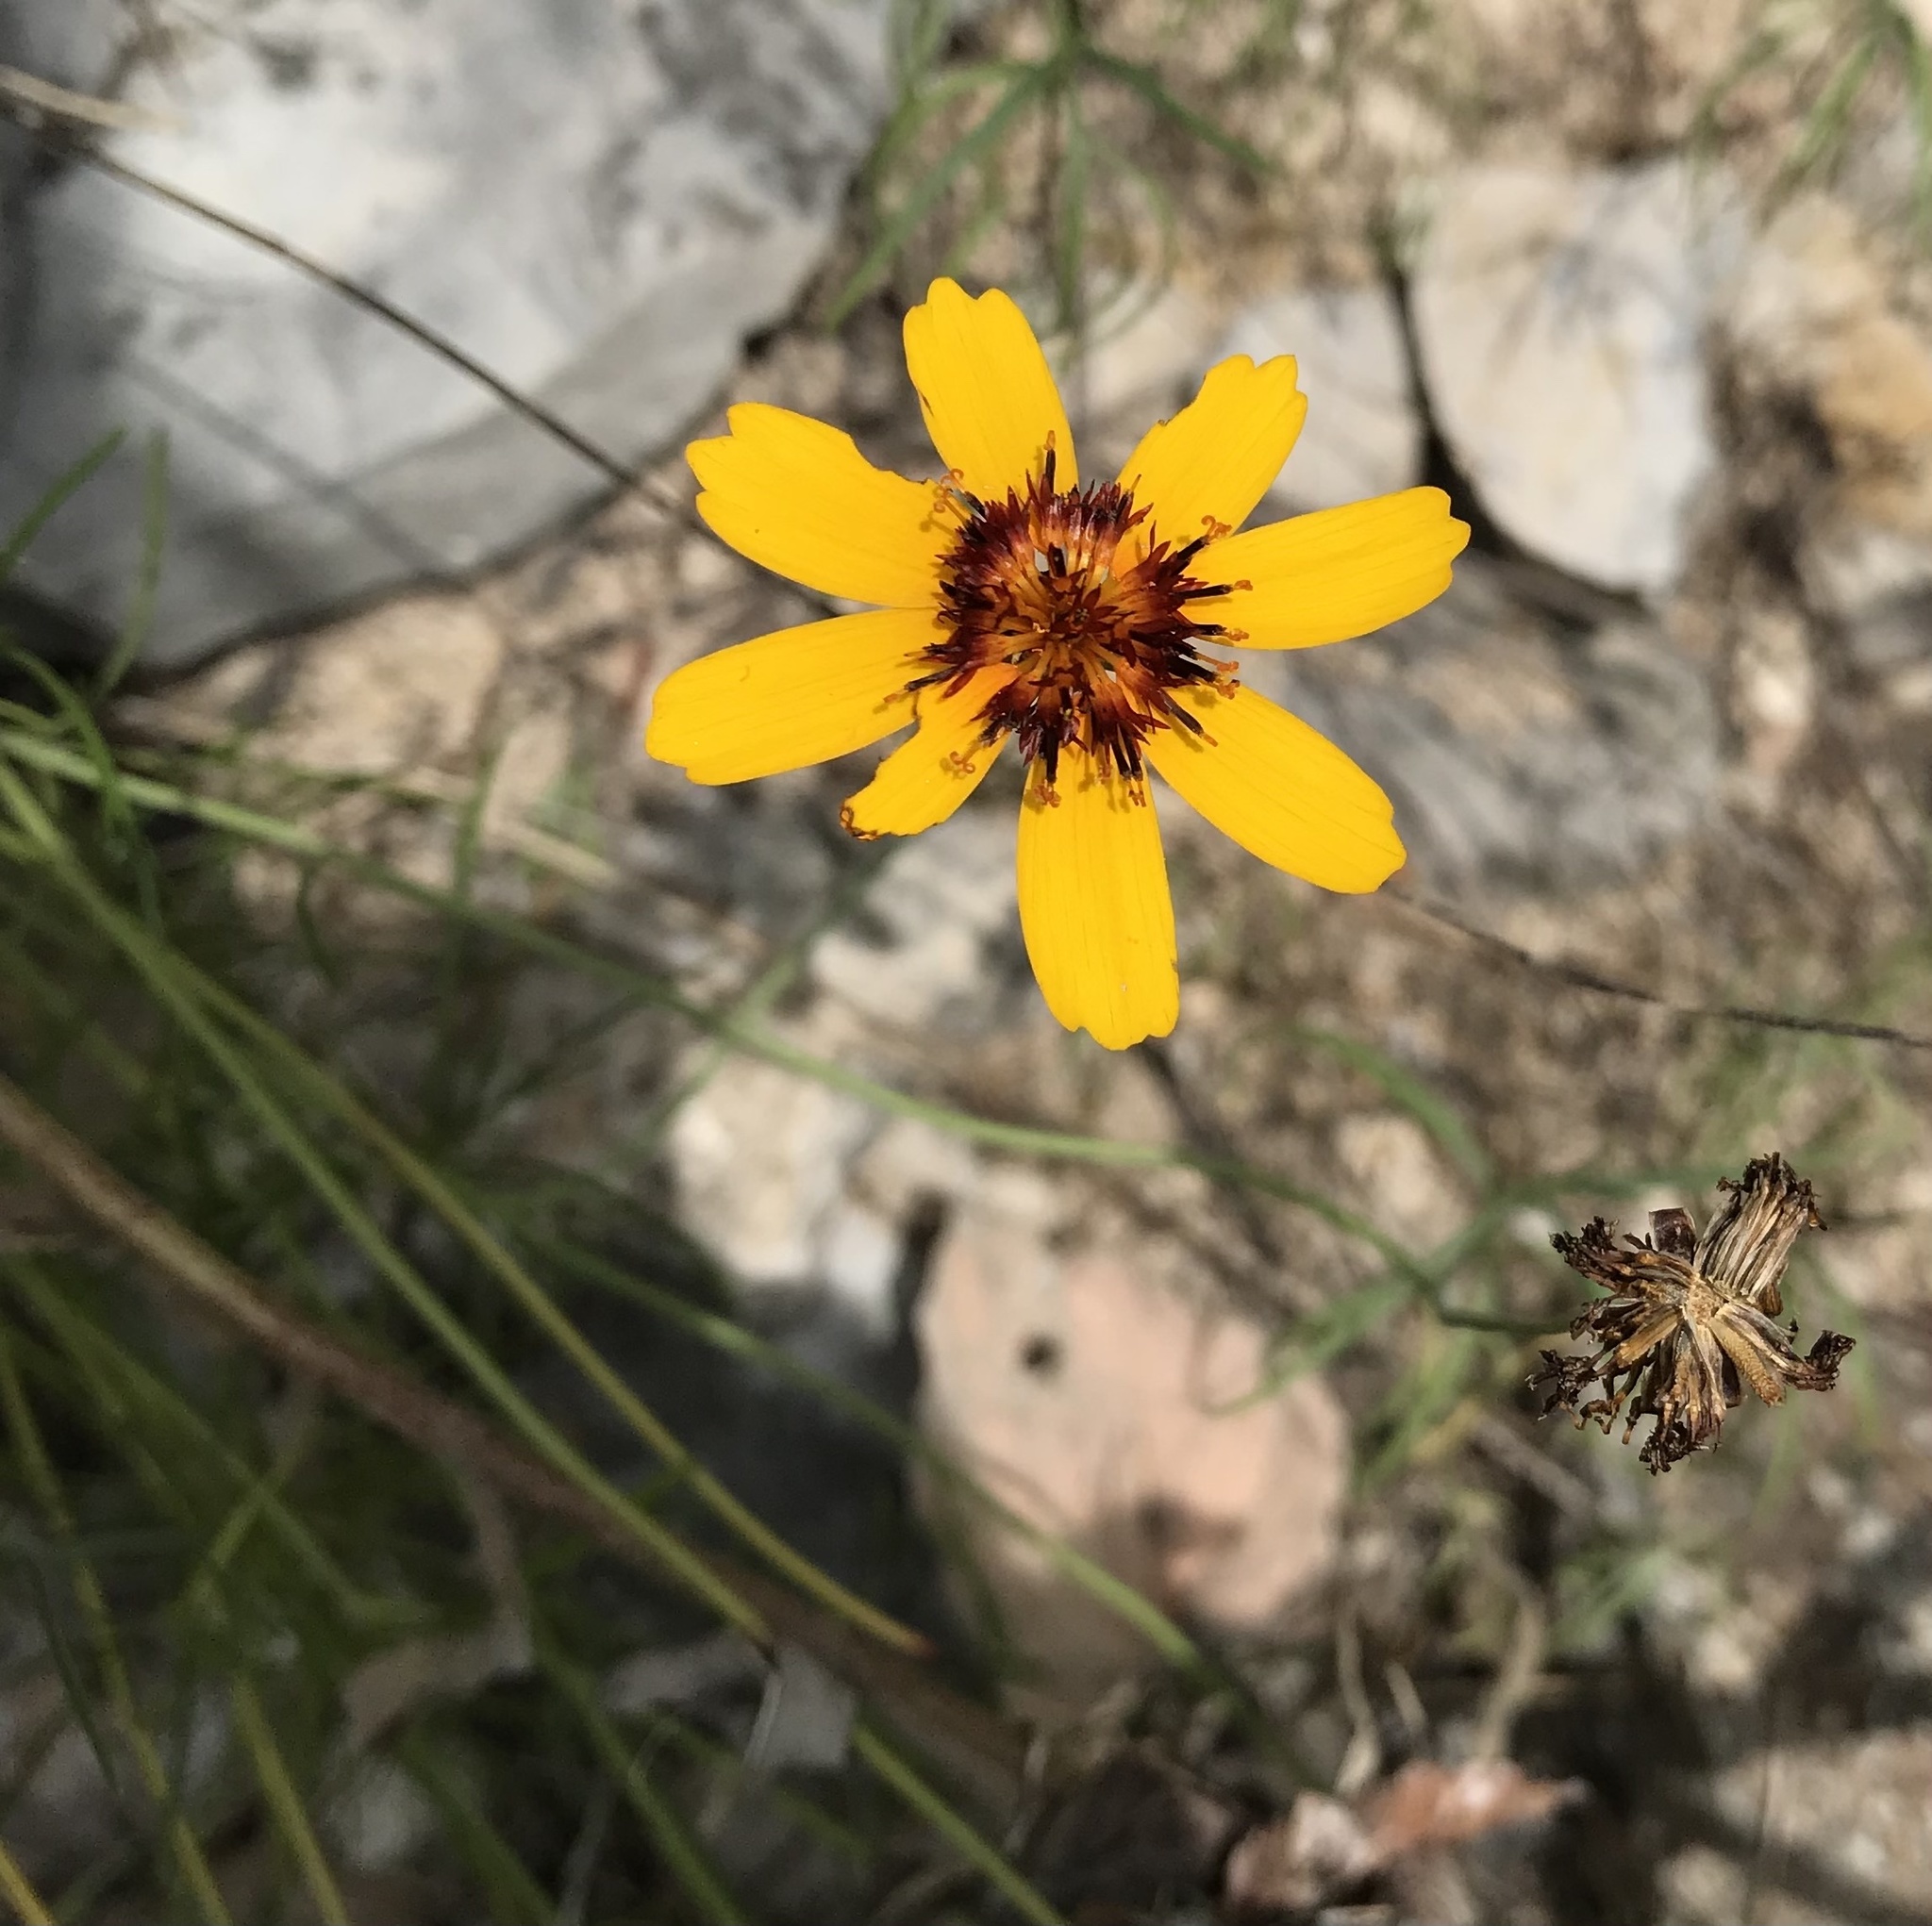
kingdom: Plantae
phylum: Tracheophyta
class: Magnoliopsida
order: Asterales
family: Asteraceae
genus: Thelesperma
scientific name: Thelesperma filifolium
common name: Stiff greenthread
